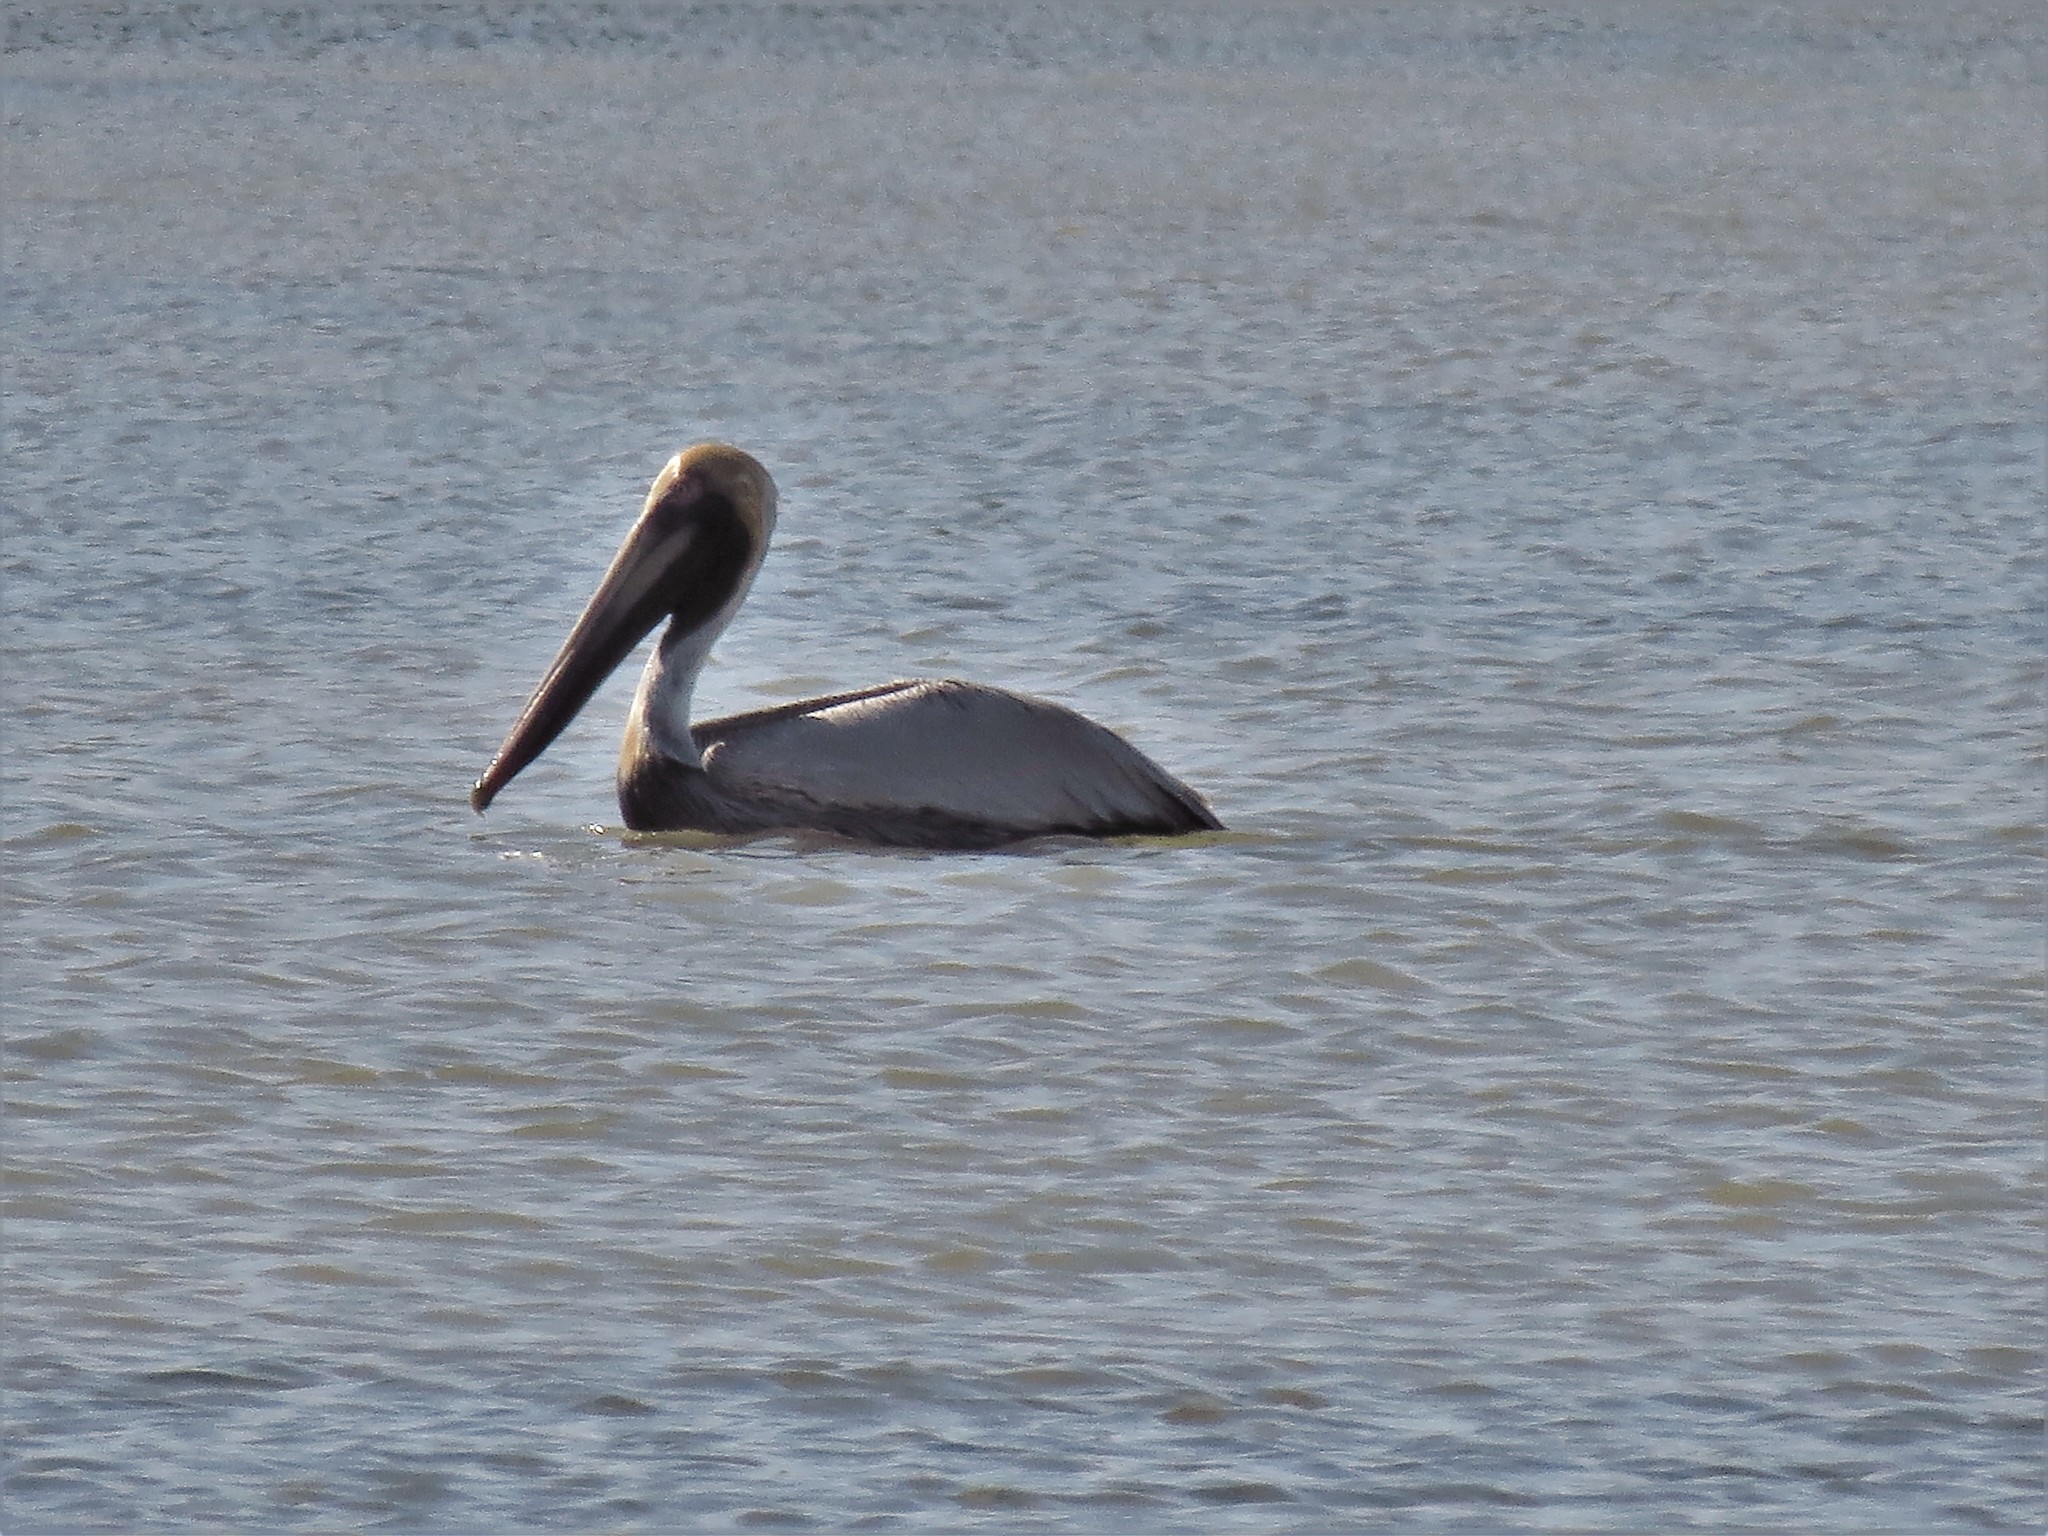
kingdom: Animalia
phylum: Chordata
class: Aves
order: Pelecaniformes
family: Pelecanidae
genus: Pelecanus
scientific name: Pelecanus occidentalis
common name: Brown pelican
